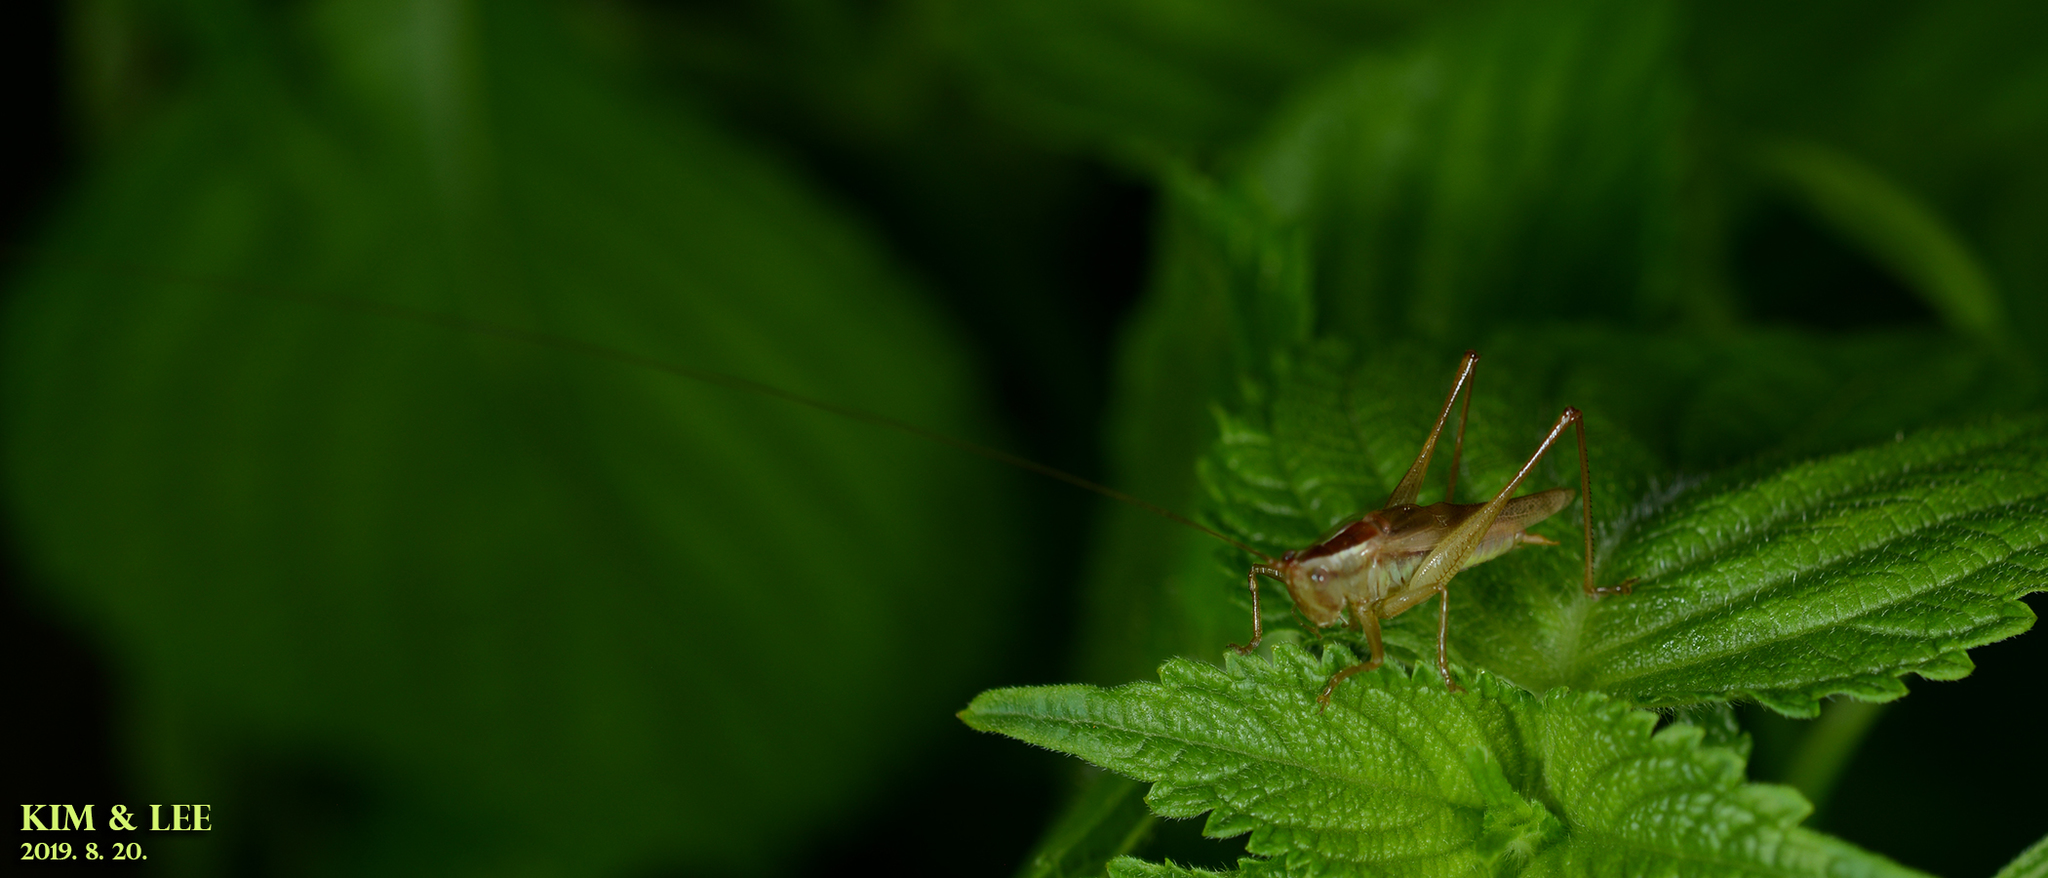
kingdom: Animalia
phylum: Arthropoda
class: Insecta
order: Orthoptera
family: Tettigoniidae
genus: Conocephalus
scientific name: Conocephalus exemptus
